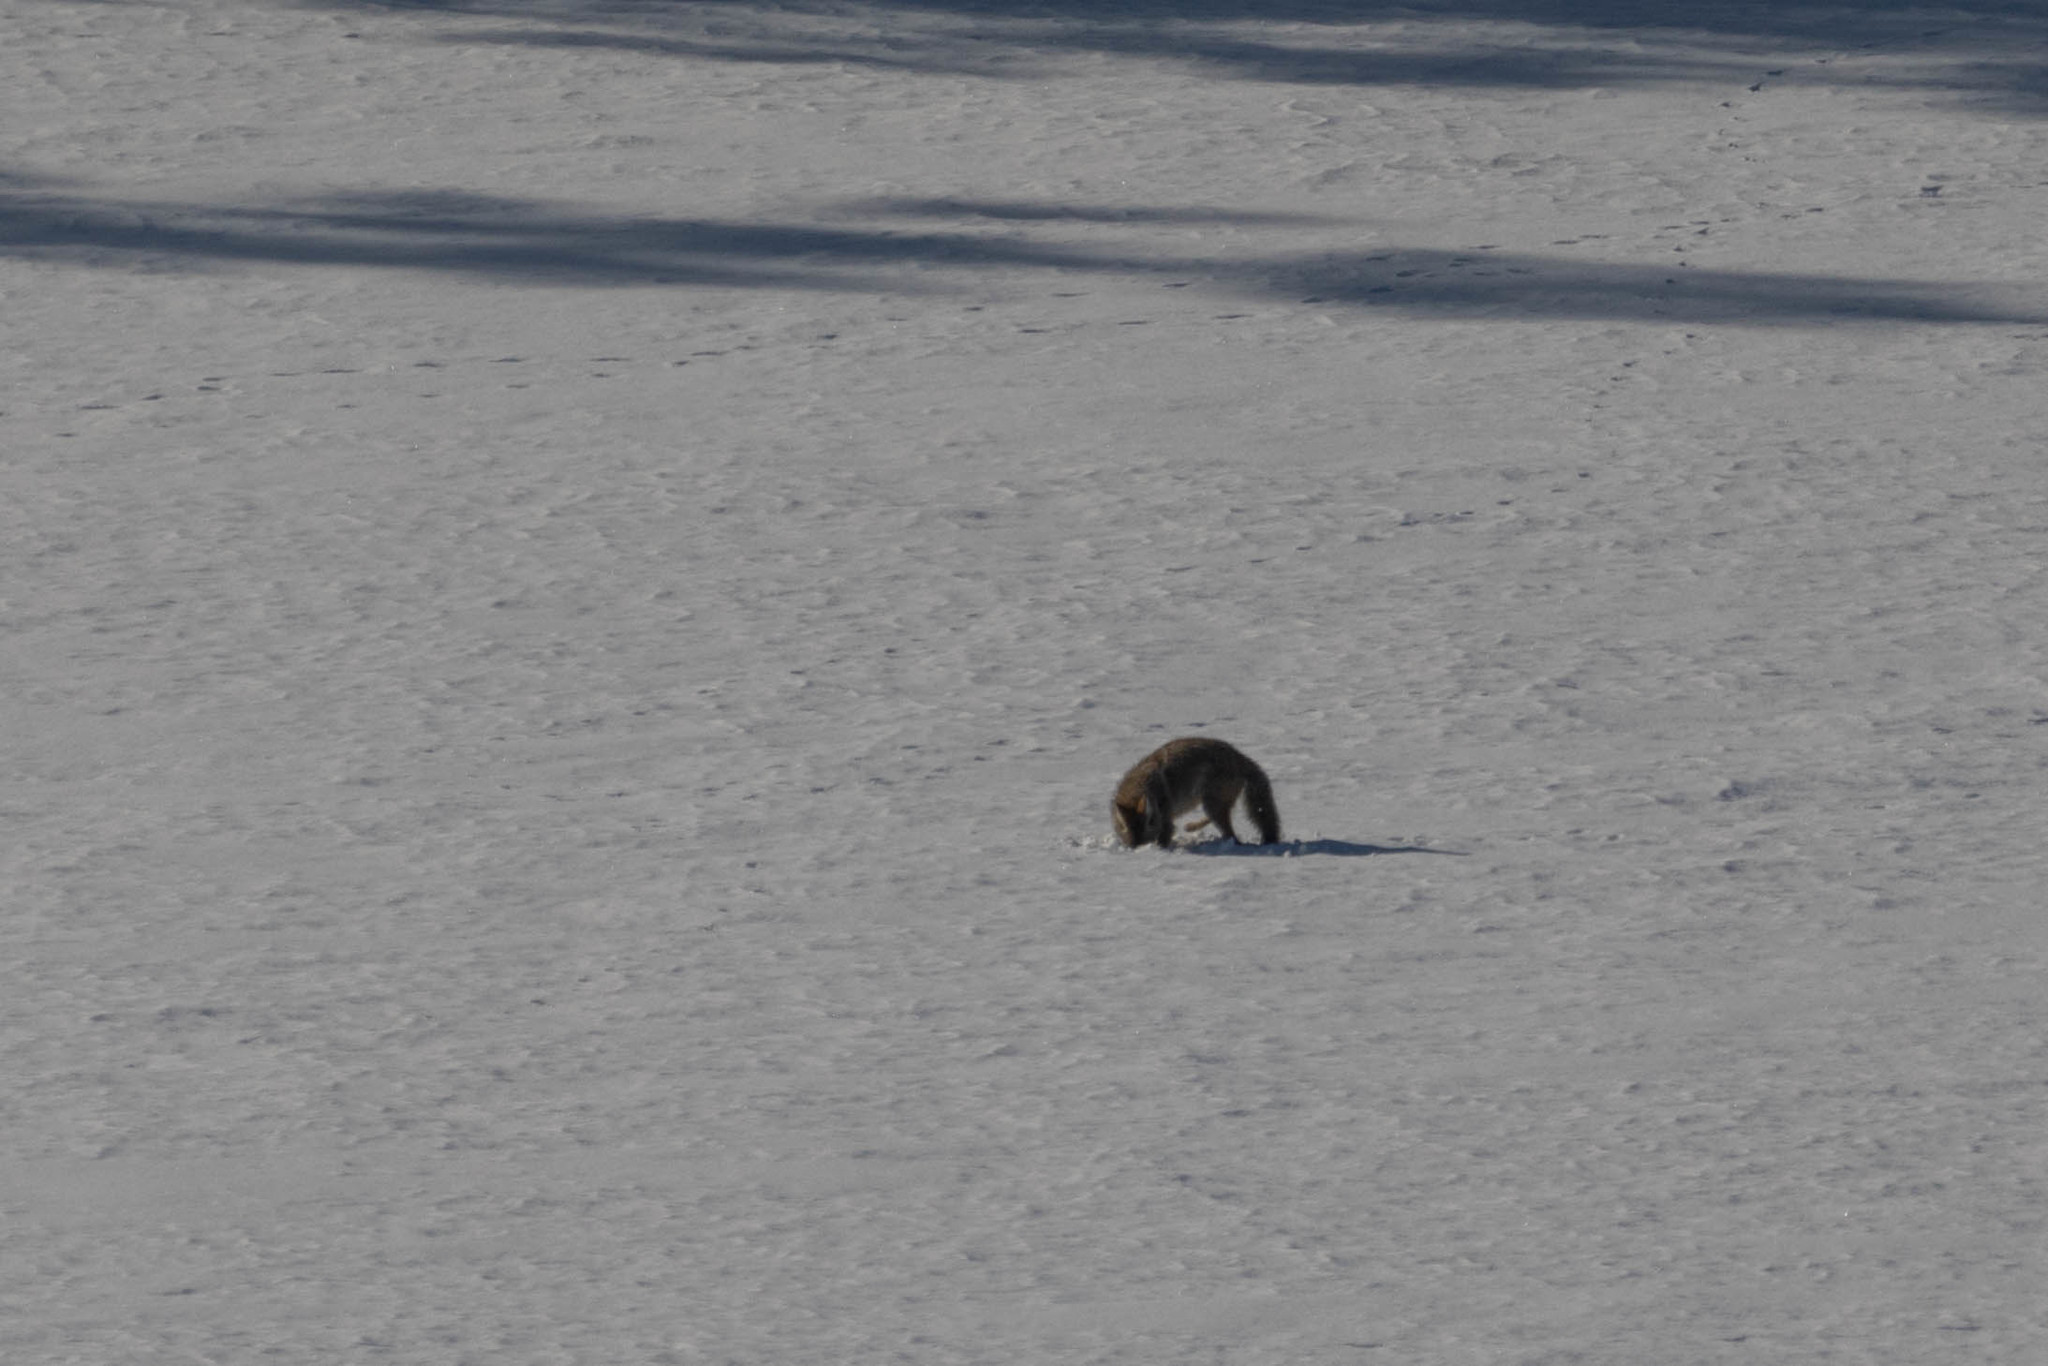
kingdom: Animalia
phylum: Chordata
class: Mammalia
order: Carnivora
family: Canidae
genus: Canis
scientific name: Canis latrans
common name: Coyote
